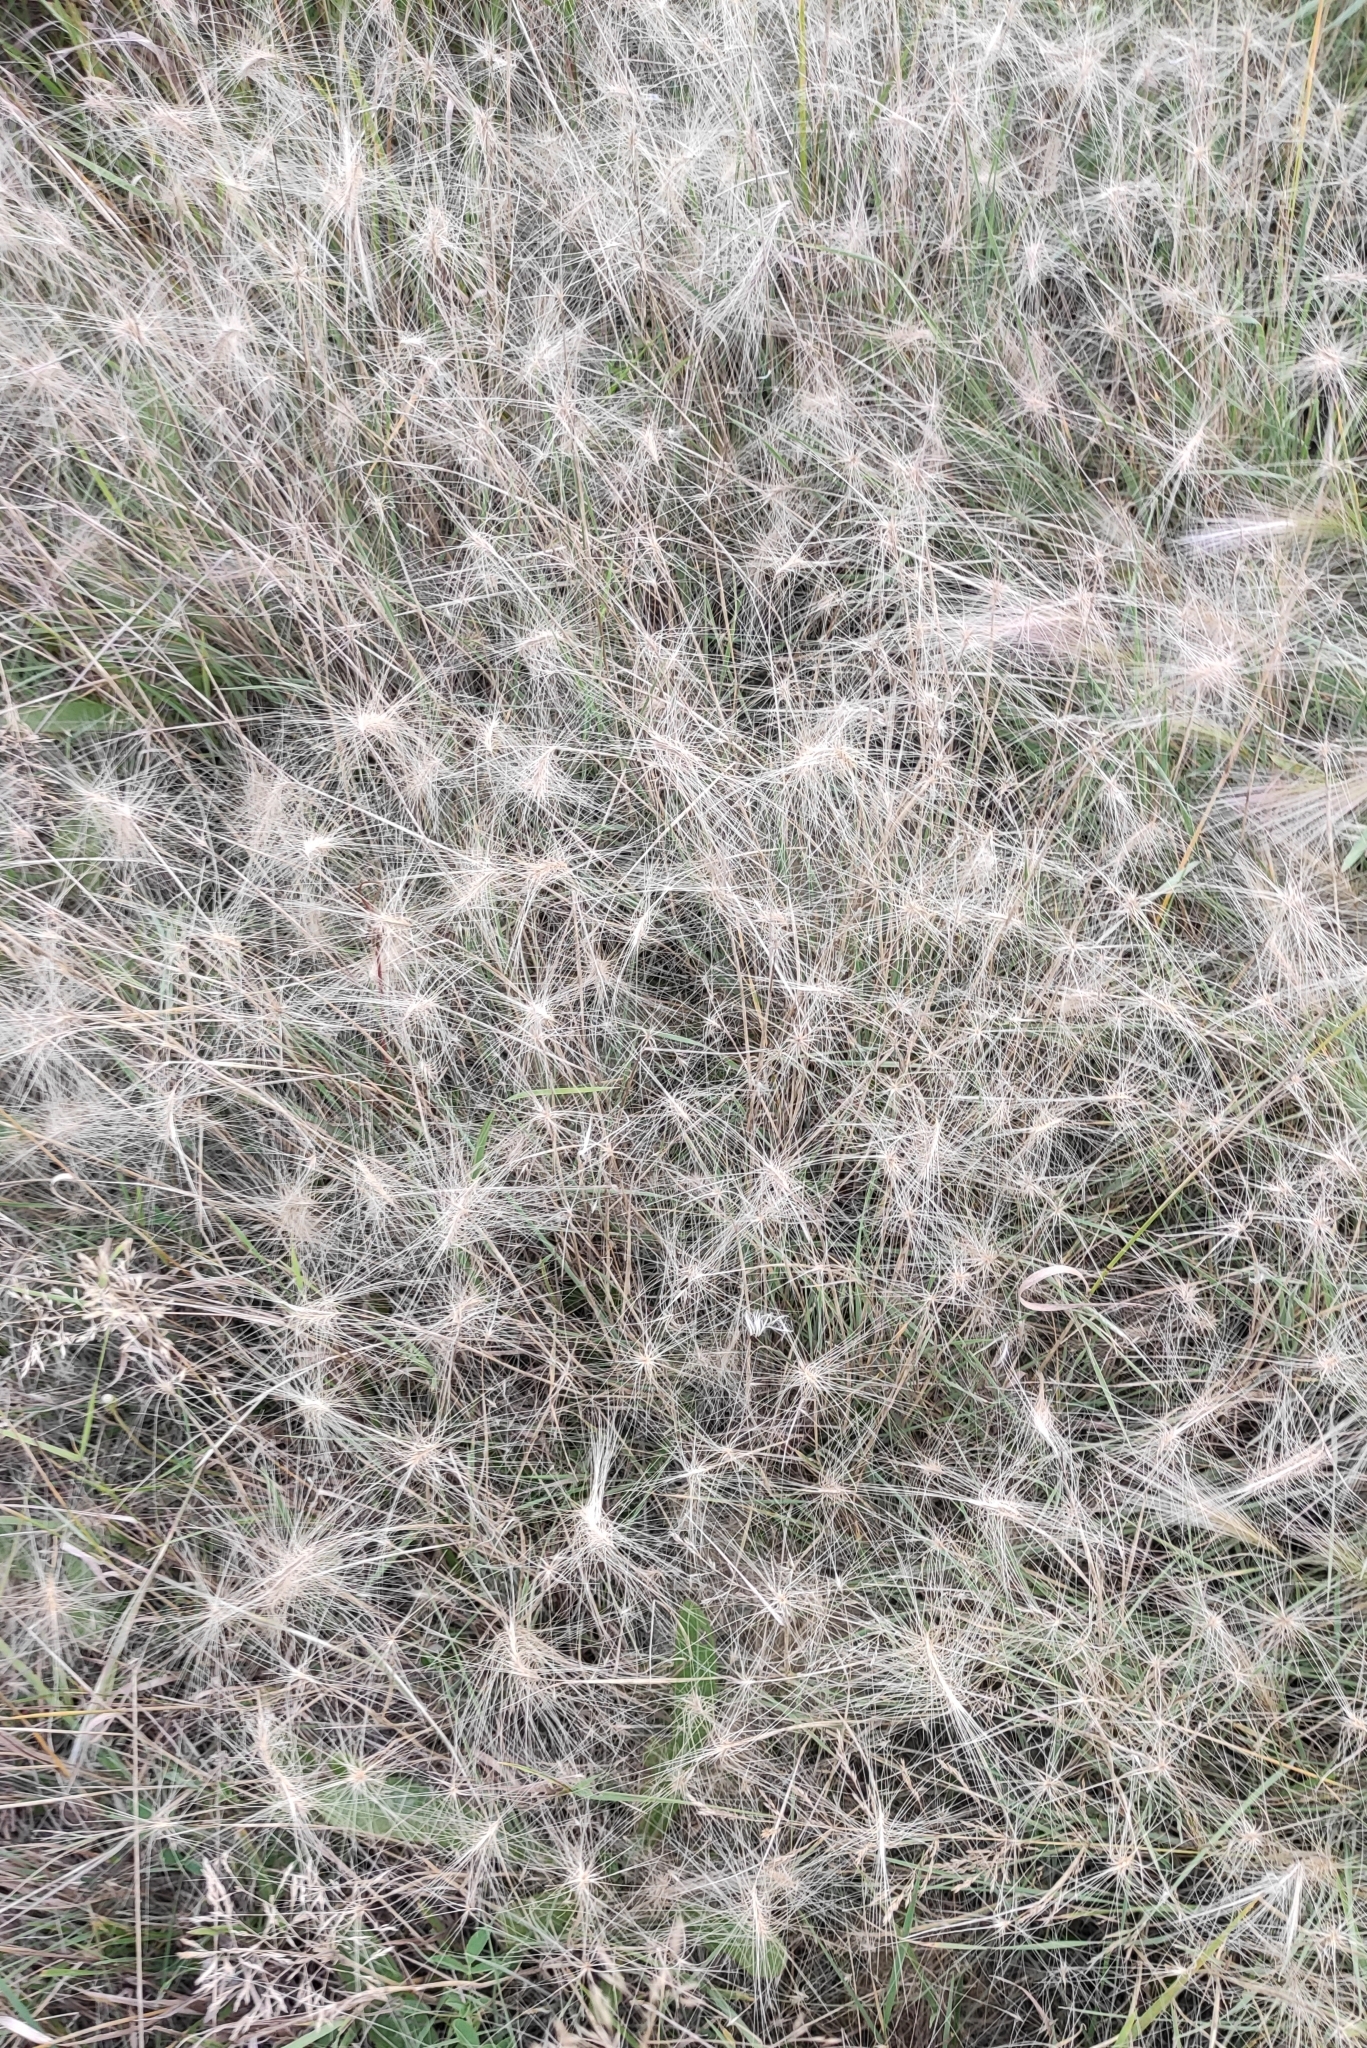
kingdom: Plantae
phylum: Tracheophyta
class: Liliopsida
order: Poales
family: Poaceae
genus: Hordeum
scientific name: Hordeum jubatum
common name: Foxtail barley
